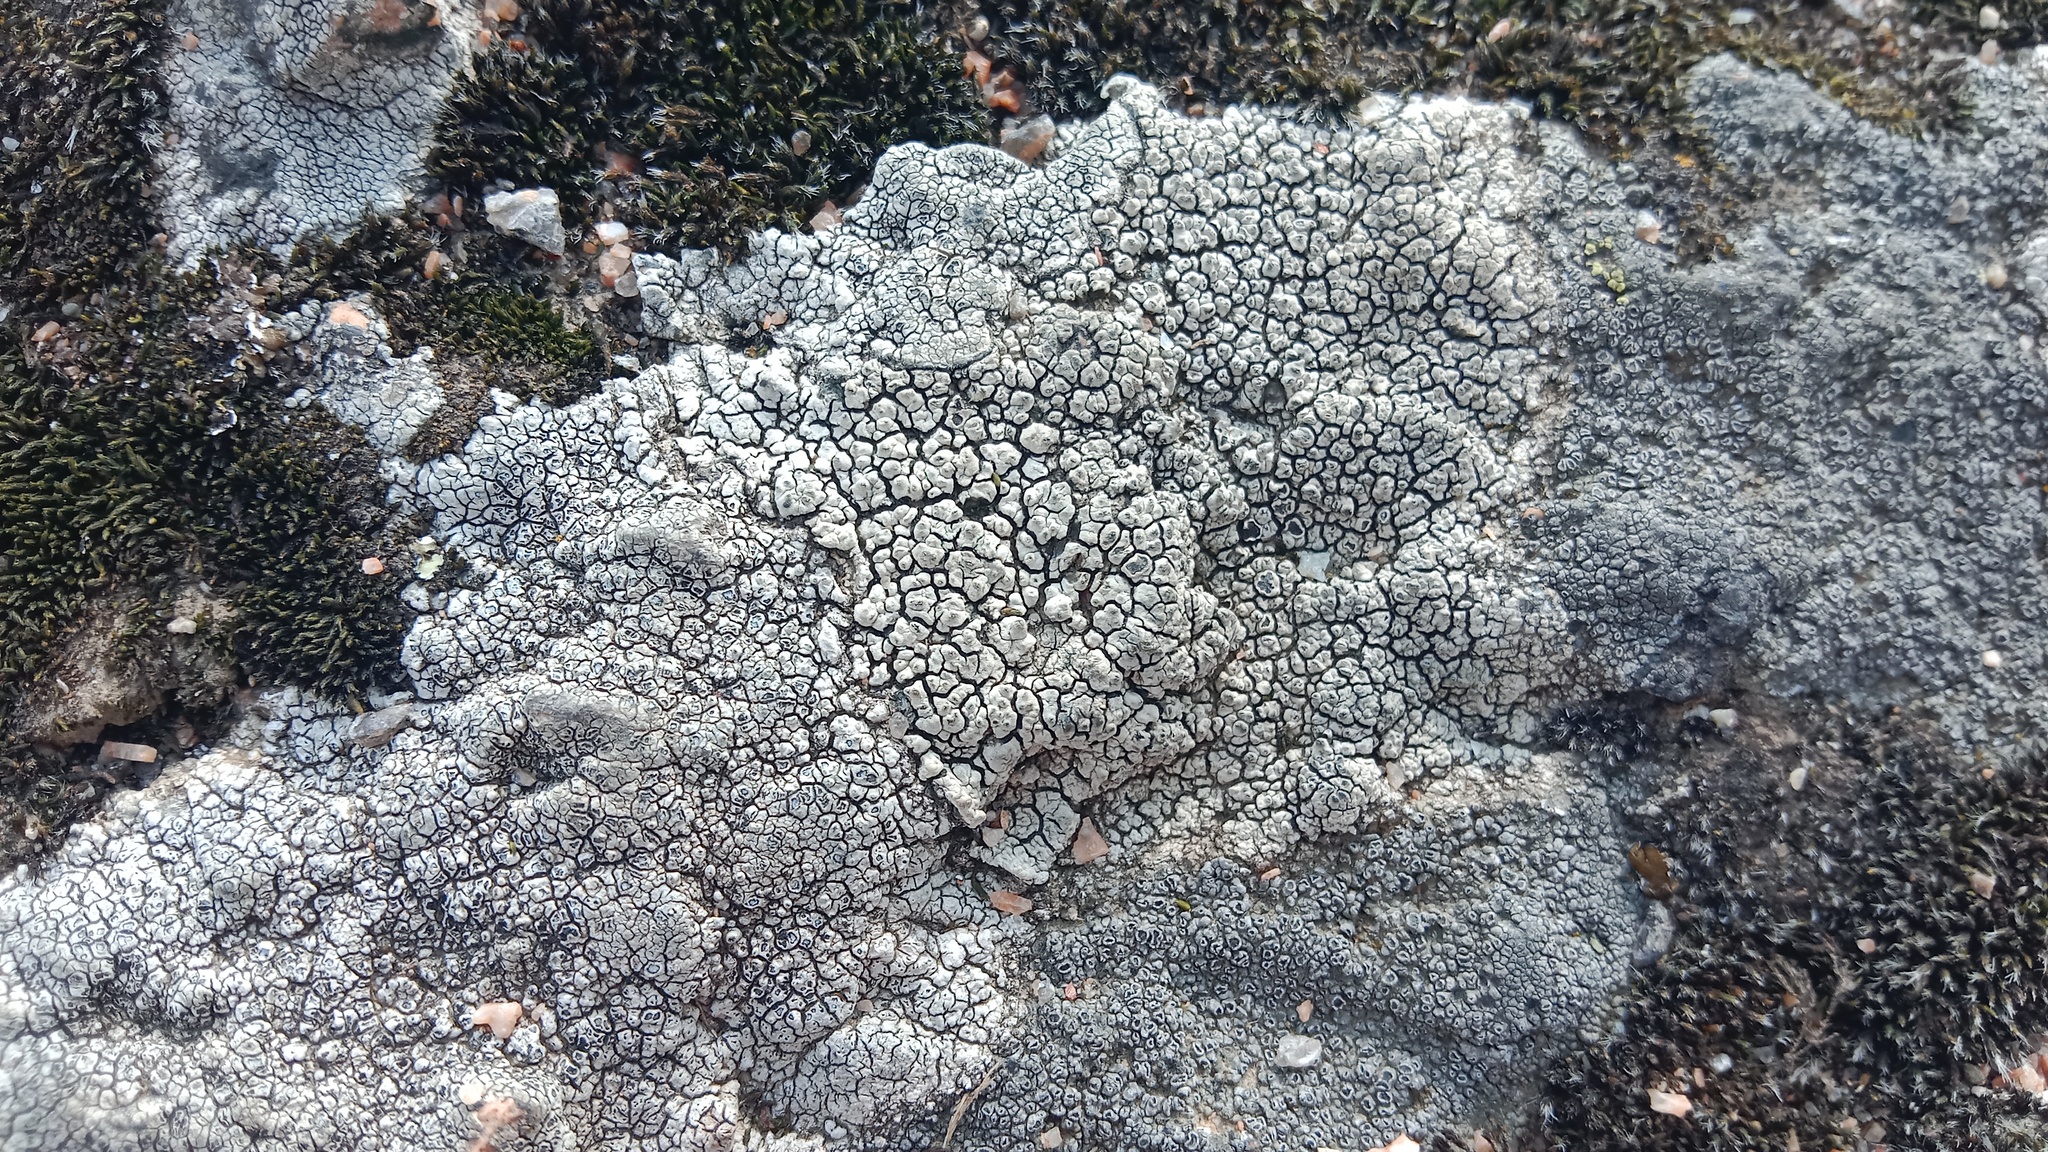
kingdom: Fungi
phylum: Ascomycota
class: Lecanoromycetes
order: Pertusariales
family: Megasporaceae
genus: Aspiciliella
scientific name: Aspiciliella intermutans
